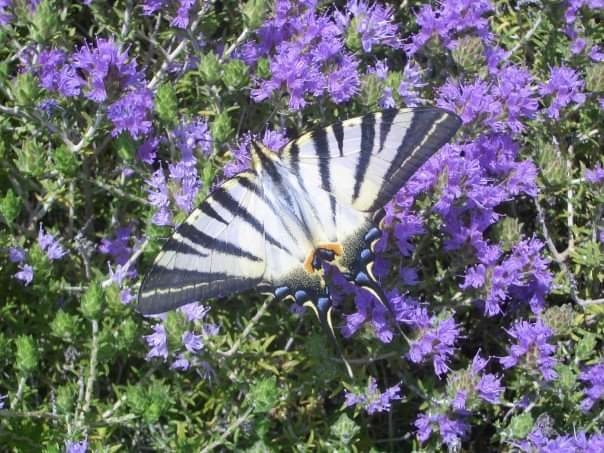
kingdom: Animalia
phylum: Arthropoda
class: Insecta
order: Lepidoptera
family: Papilionidae
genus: Iphiclides
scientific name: Iphiclides podalirius
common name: Scarce swallowtail
